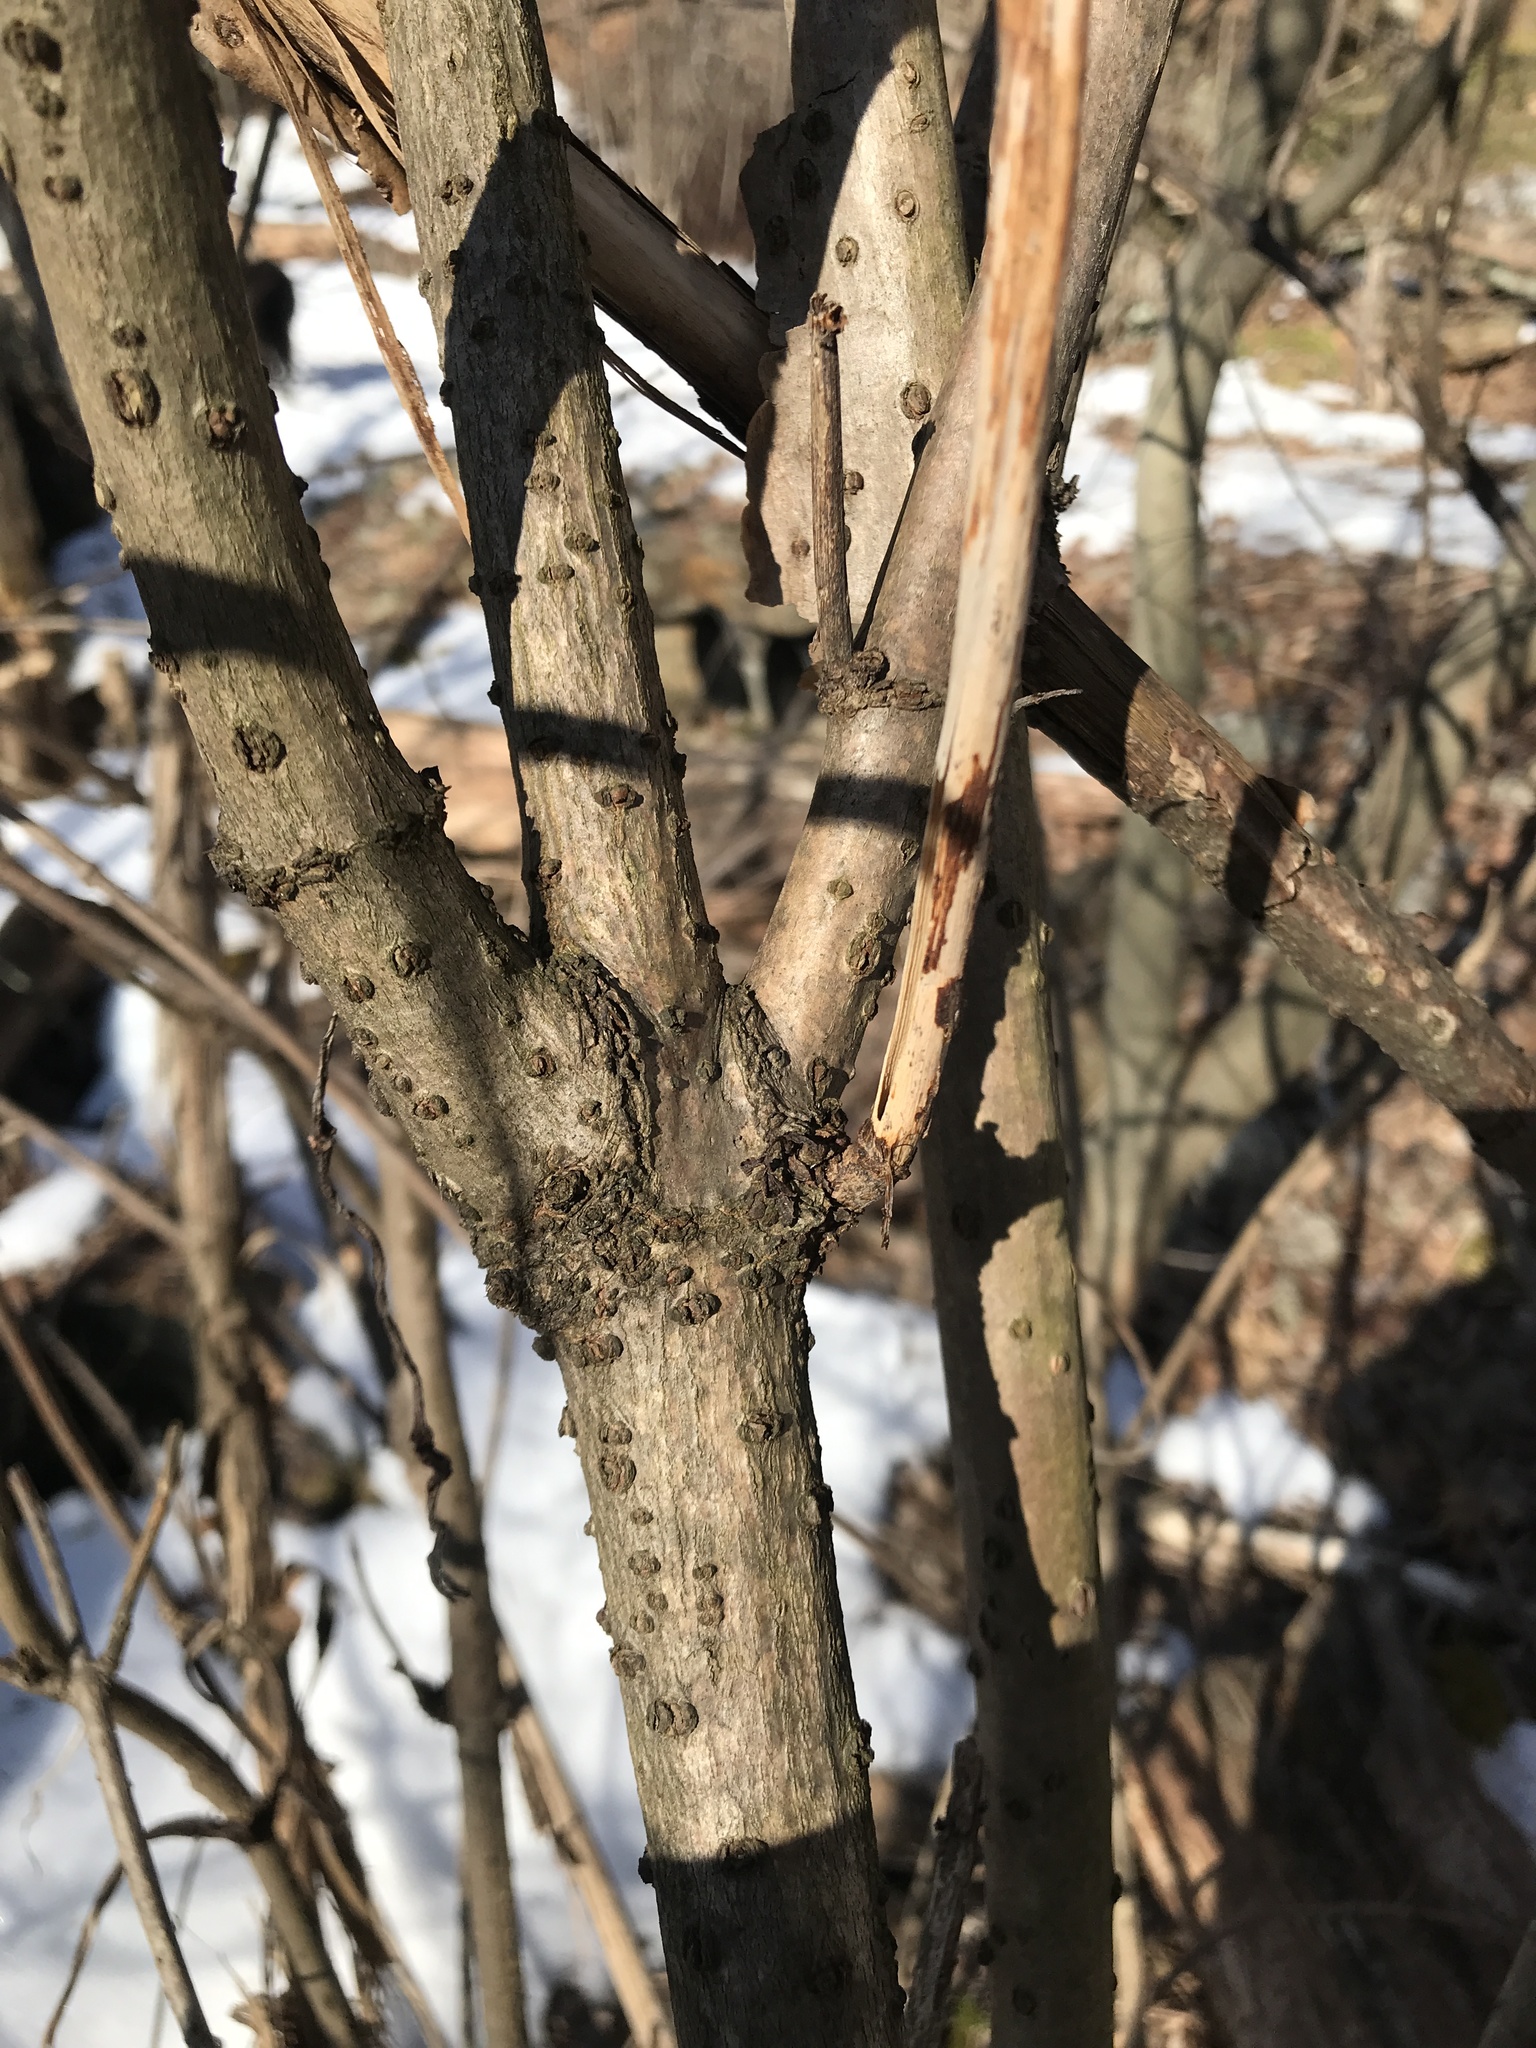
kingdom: Plantae
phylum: Tracheophyta
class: Magnoliopsida
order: Dipsacales
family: Viburnaceae
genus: Sambucus
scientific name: Sambucus canadensis
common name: American elder
